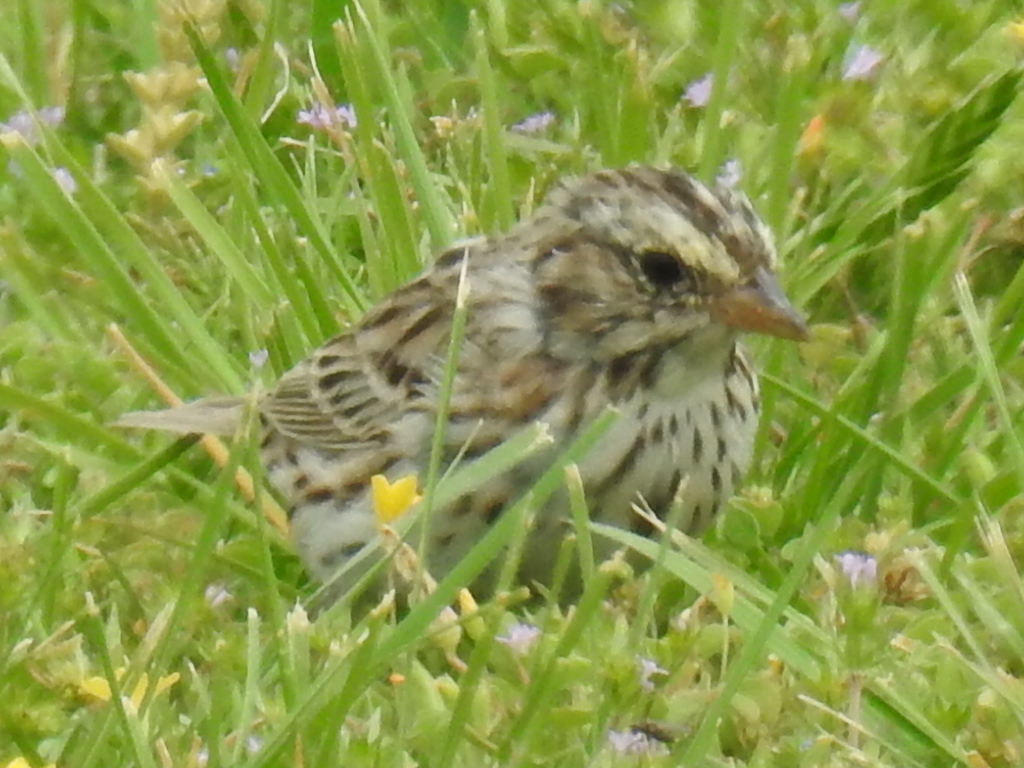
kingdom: Animalia
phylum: Chordata
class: Aves
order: Passeriformes
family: Passerellidae
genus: Passerculus
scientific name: Passerculus sandwichensis
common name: Savannah sparrow
